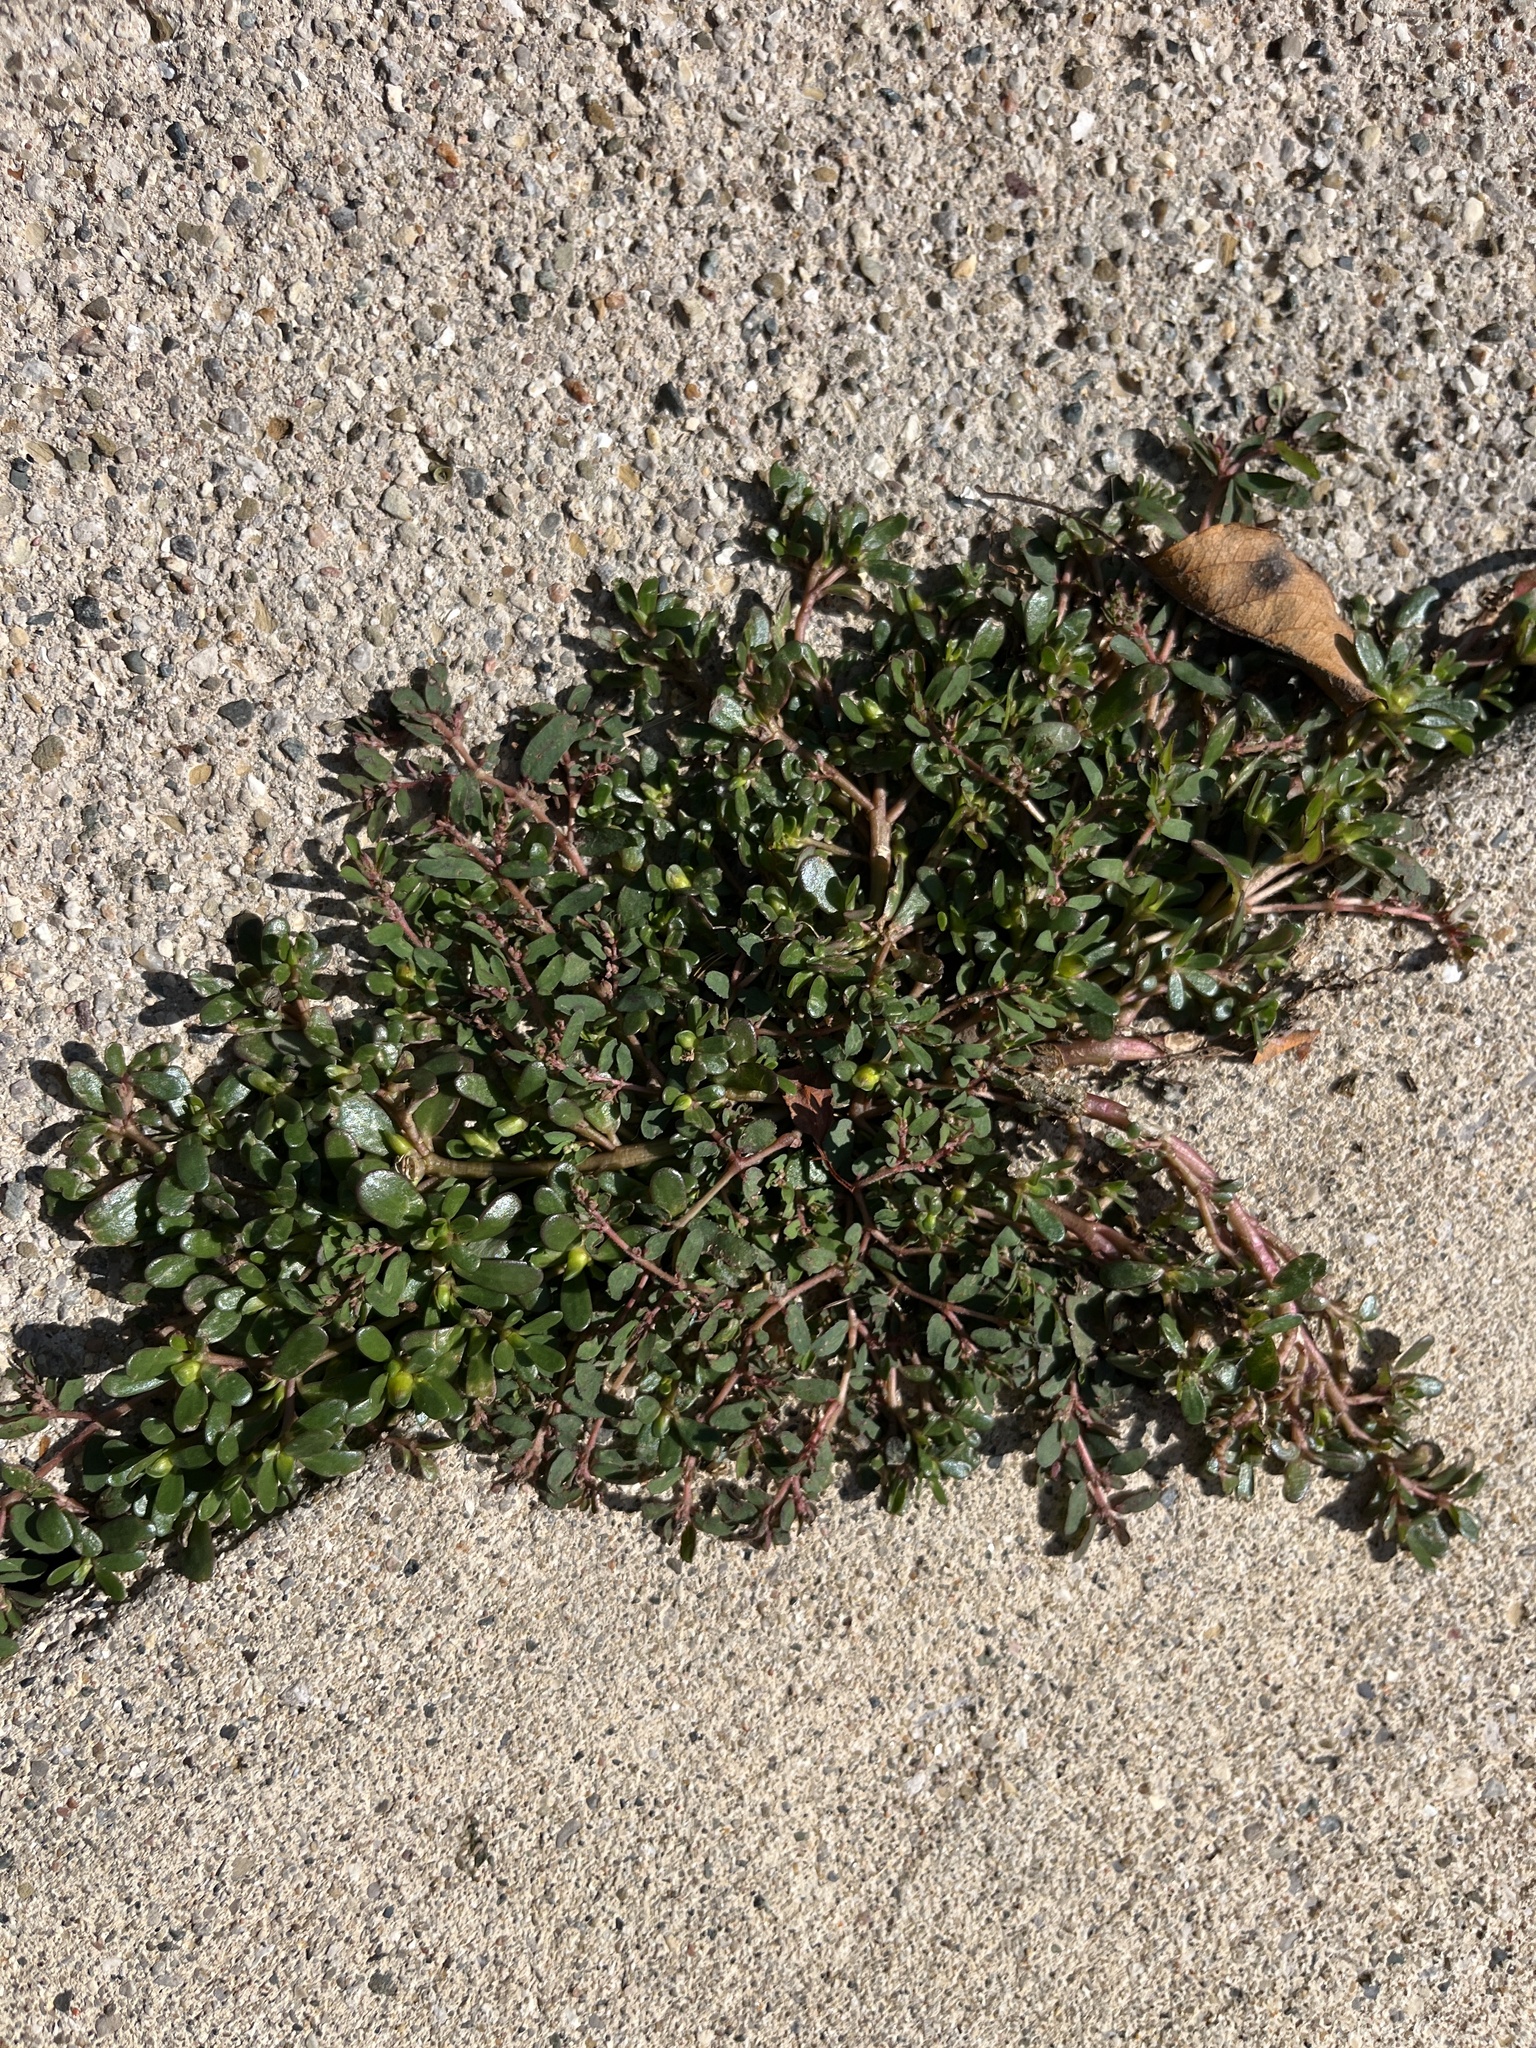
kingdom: Plantae
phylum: Tracheophyta
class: Magnoliopsida
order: Caryophyllales
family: Portulacaceae
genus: Portulaca
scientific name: Portulaca oleracea
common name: Common purslane
